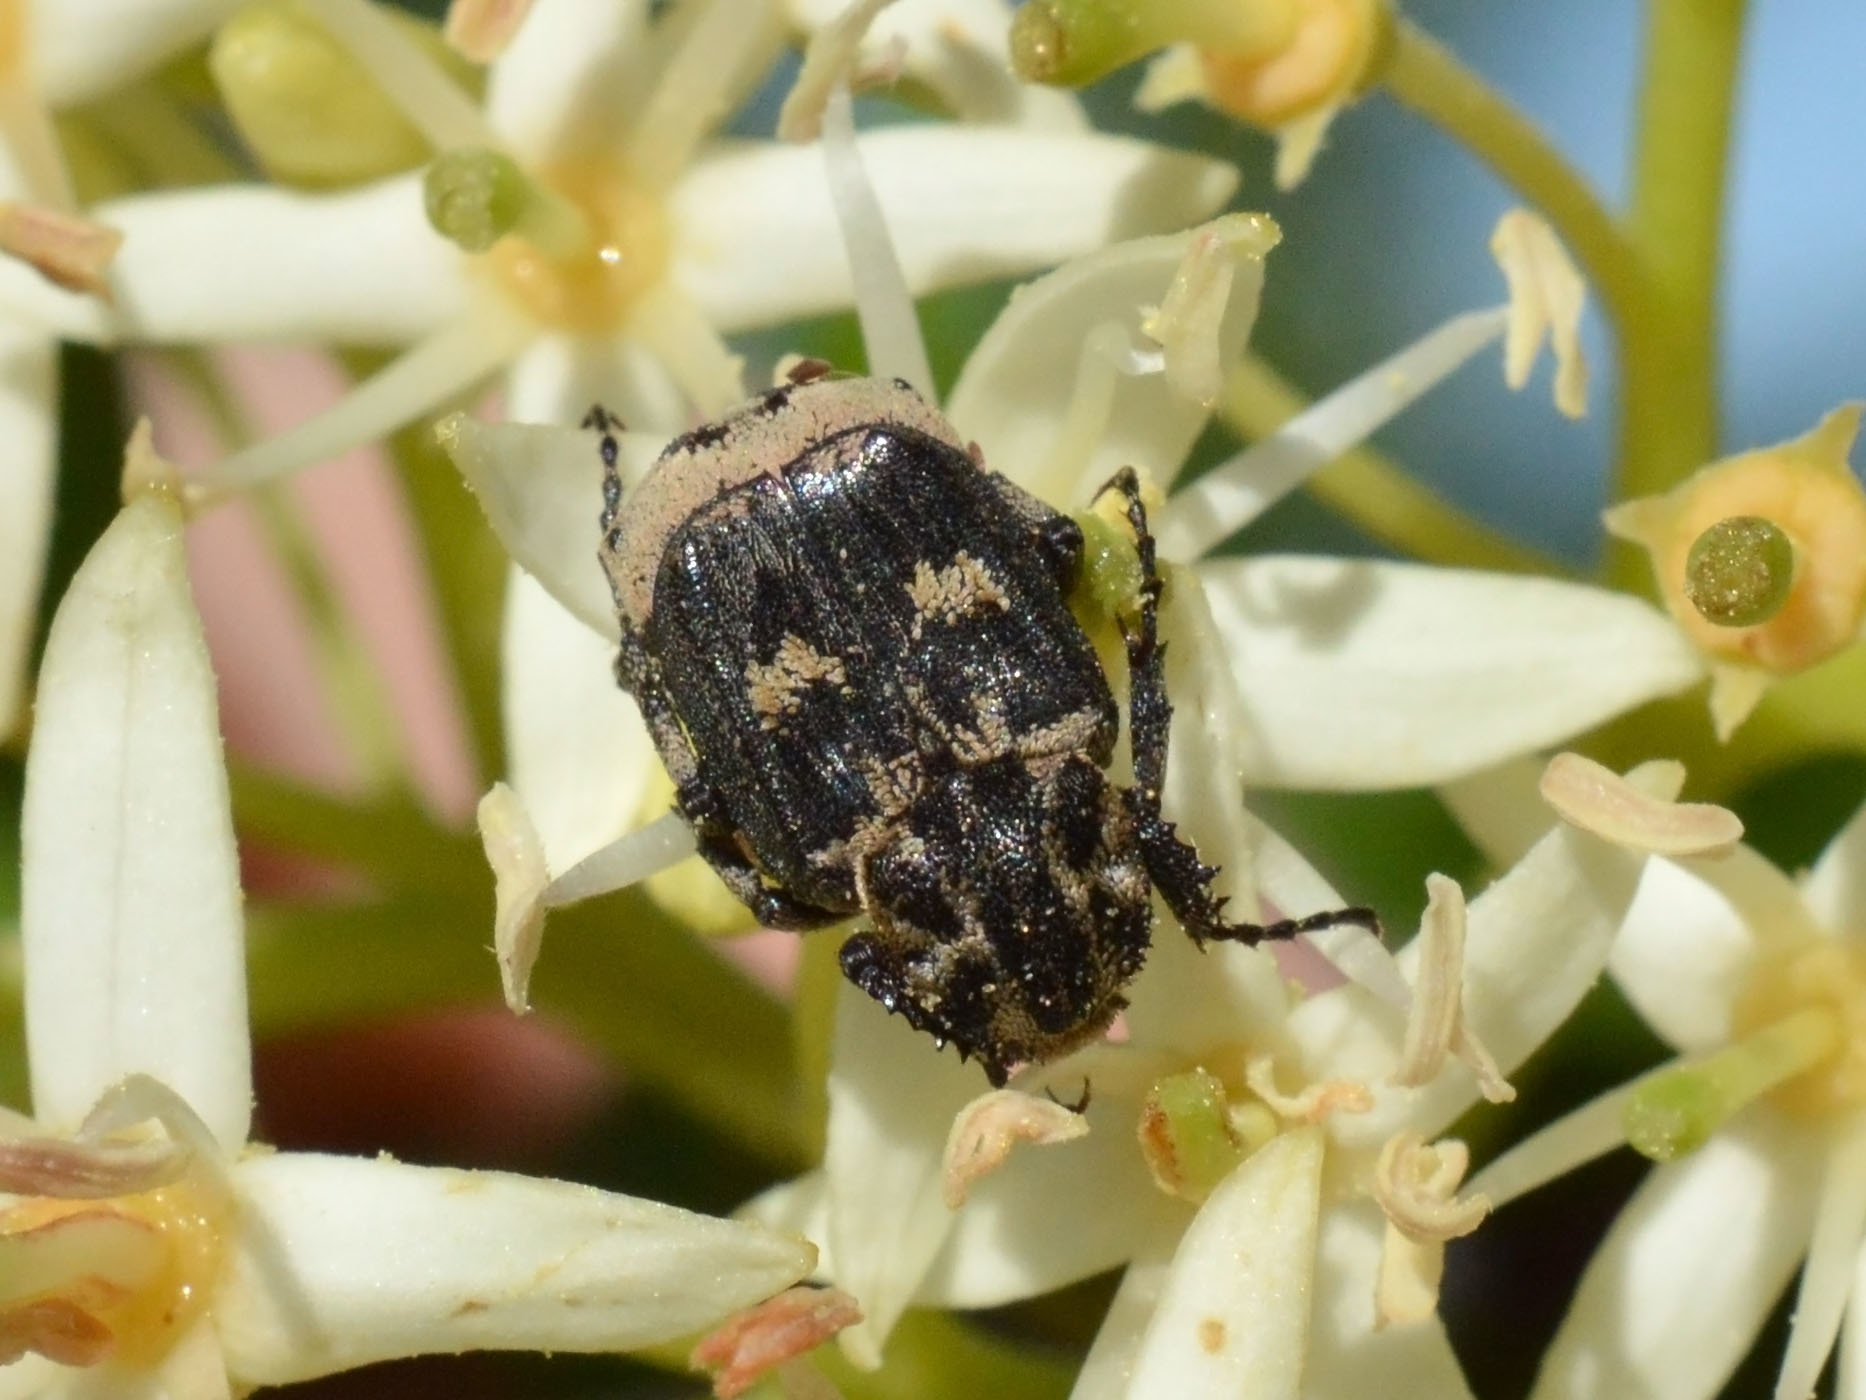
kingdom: Animalia
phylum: Arthropoda
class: Insecta
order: Coleoptera
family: Scarabaeidae
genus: Valgus
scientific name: Valgus hemipterus
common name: Bug flower chafer
